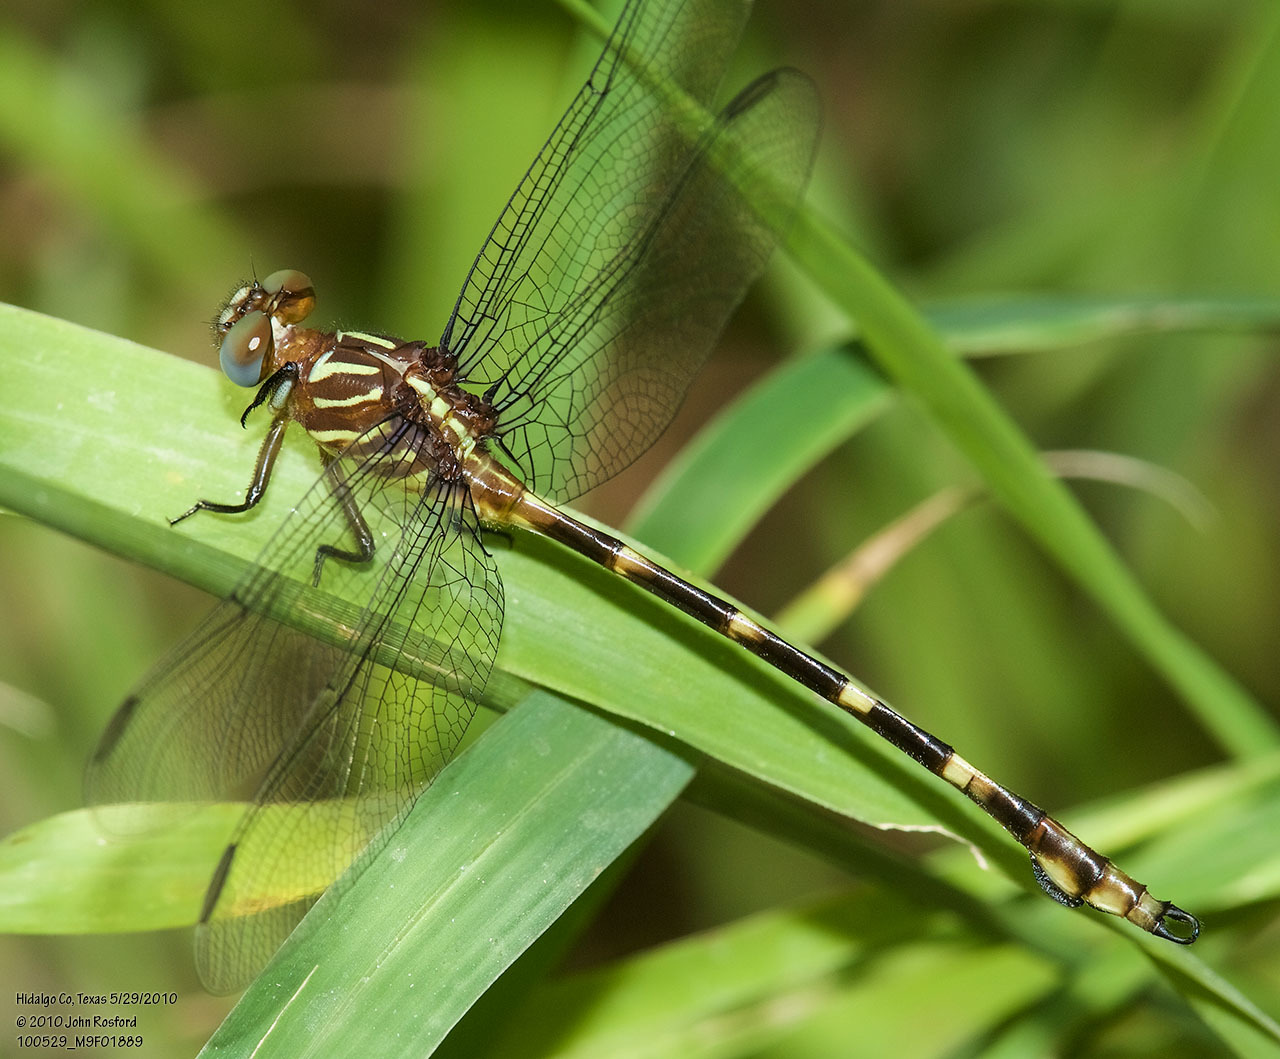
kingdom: Animalia
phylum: Arthropoda
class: Insecta
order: Odonata
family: Gomphidae
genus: Phyllocycla
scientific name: Phyllocycla breviphylla
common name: Ringed forceptail
